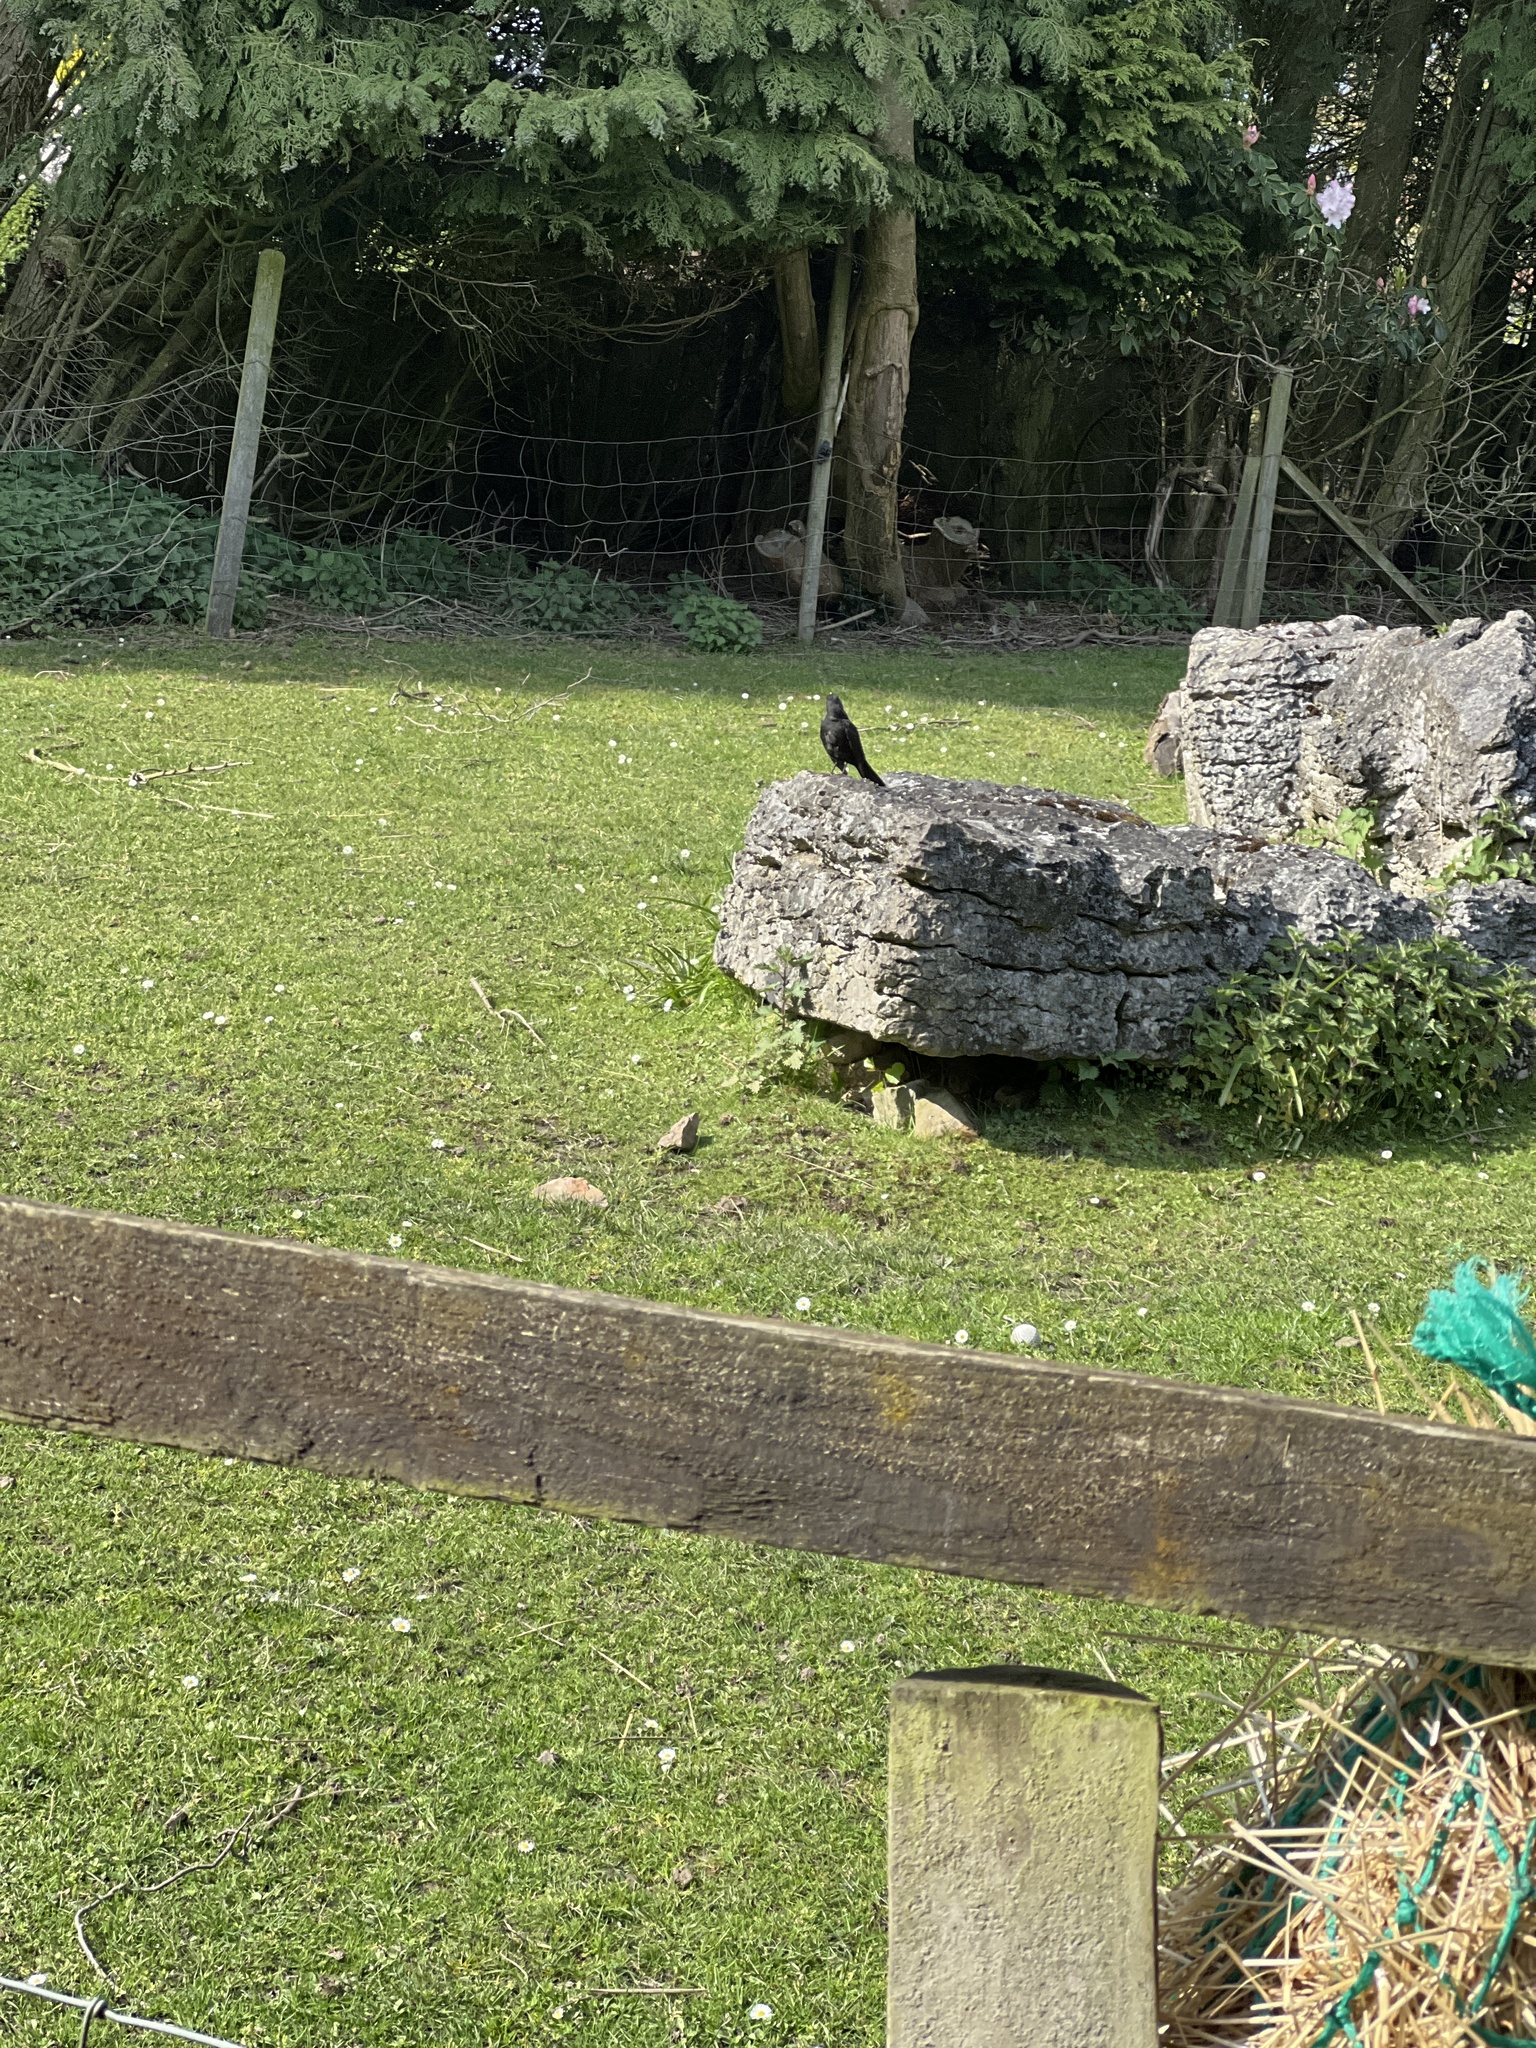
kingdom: Animalia
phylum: Chordata
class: Aves
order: Passeriformes
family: Turdidae
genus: Turdus
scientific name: Turdus merula
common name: Common blackbird
